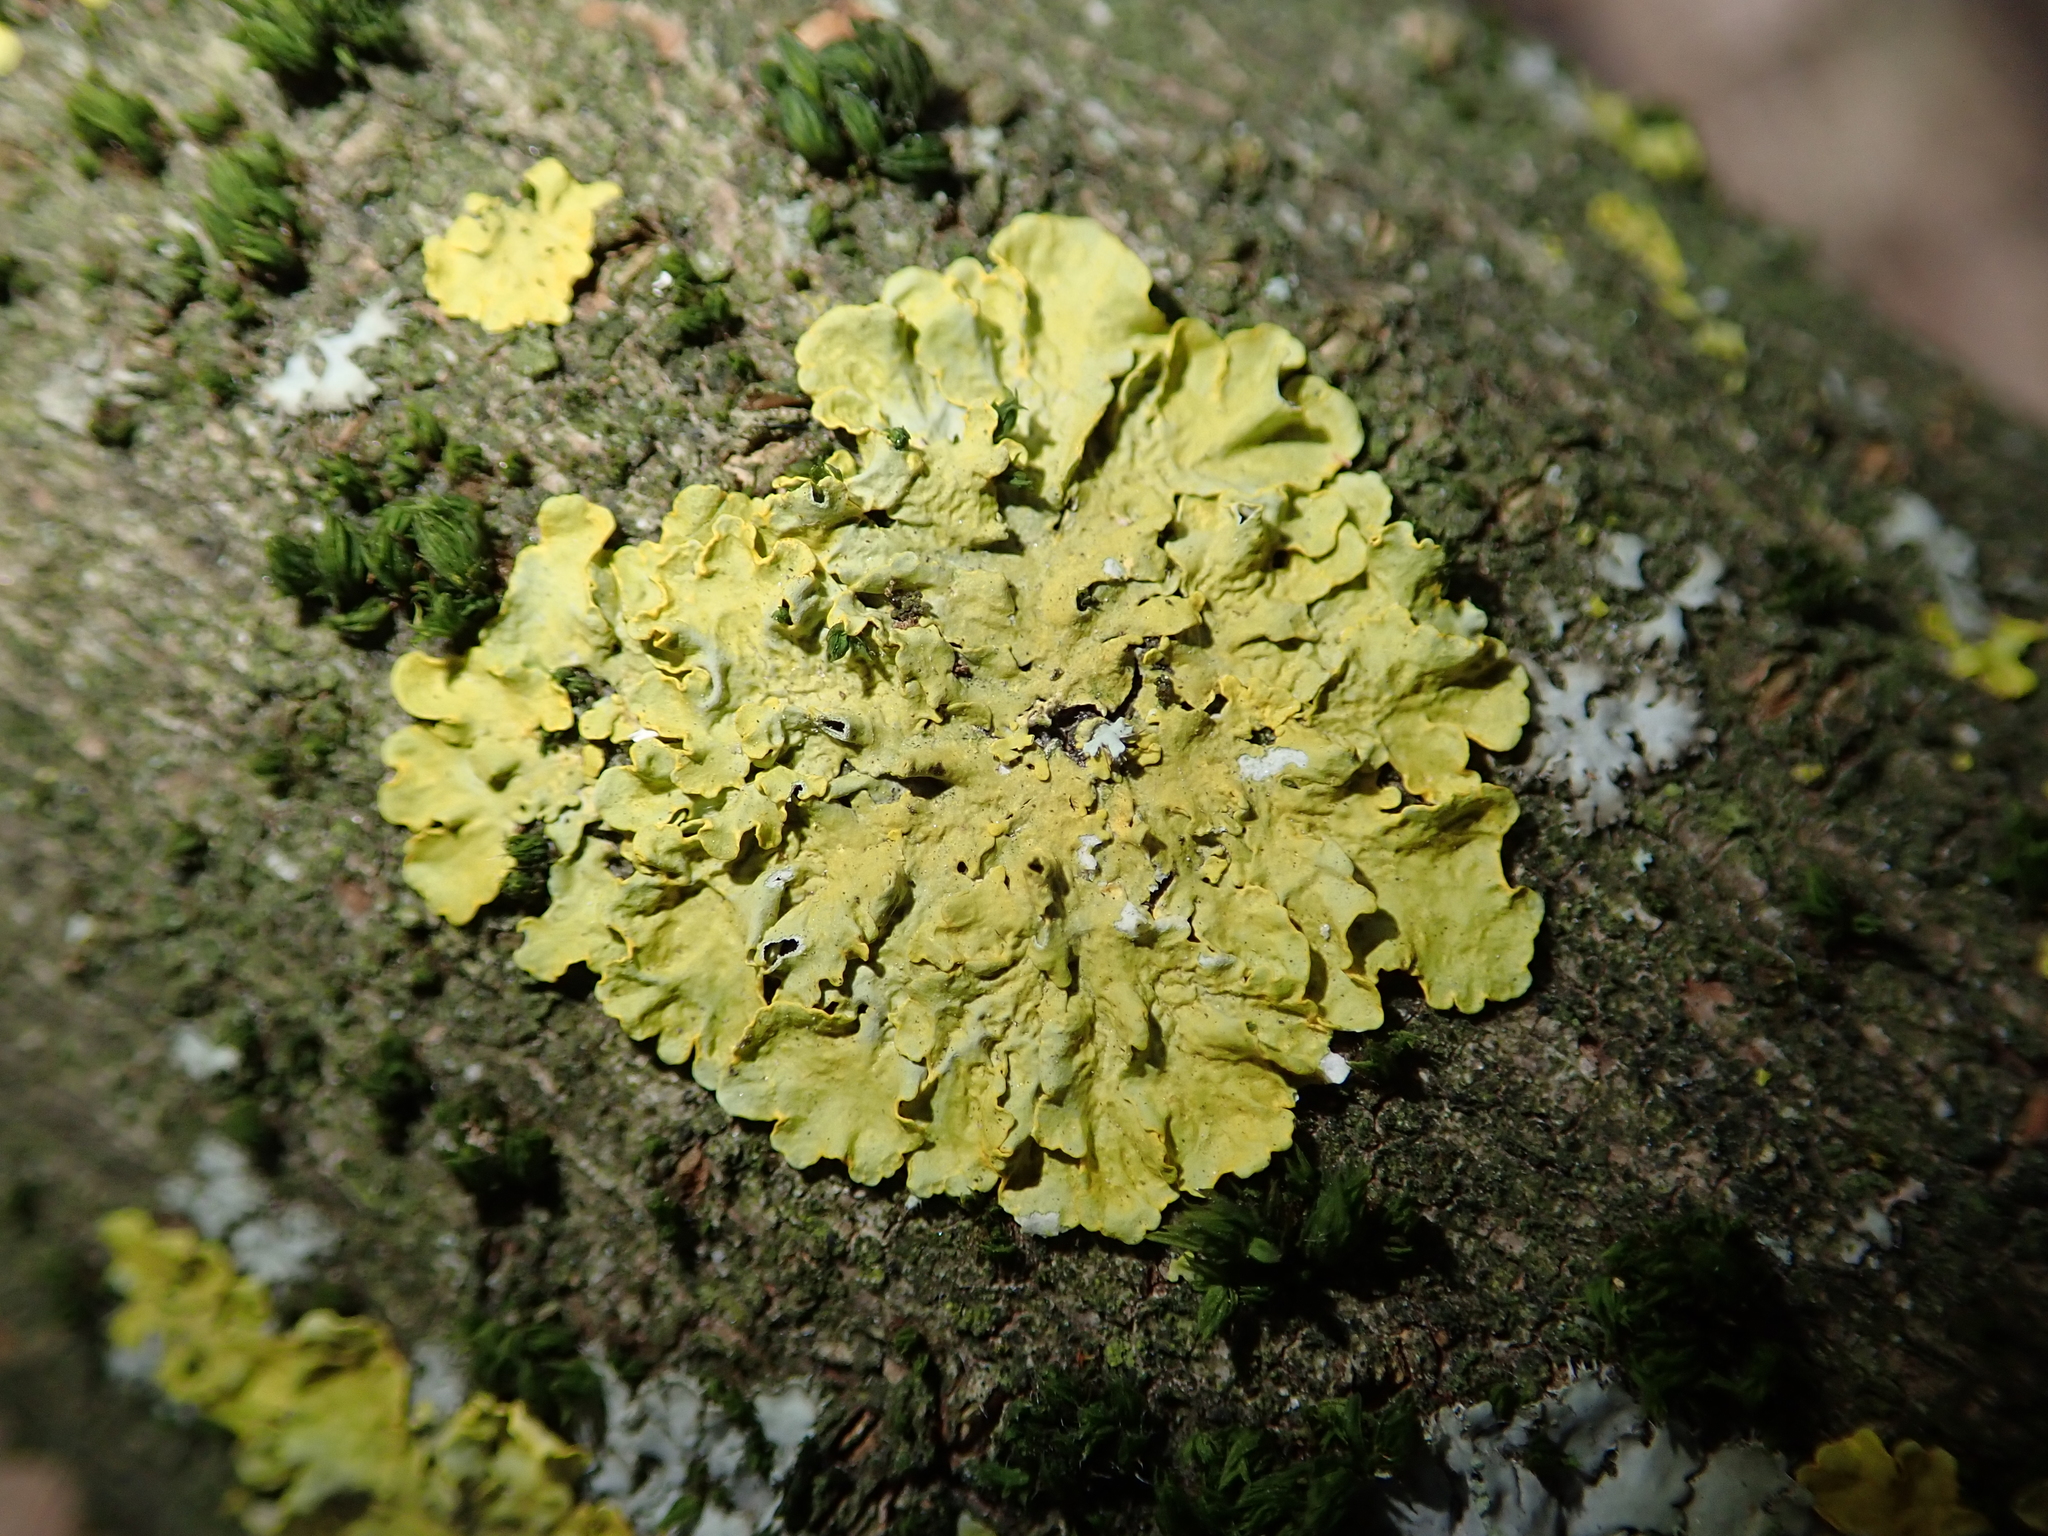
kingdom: Fungi
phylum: Ascomycota
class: Lecanoromycetes
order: Teloschistales
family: Teloschistaceae
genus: Xanthoria
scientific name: Xanthoria parietina
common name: Common orange lichen
